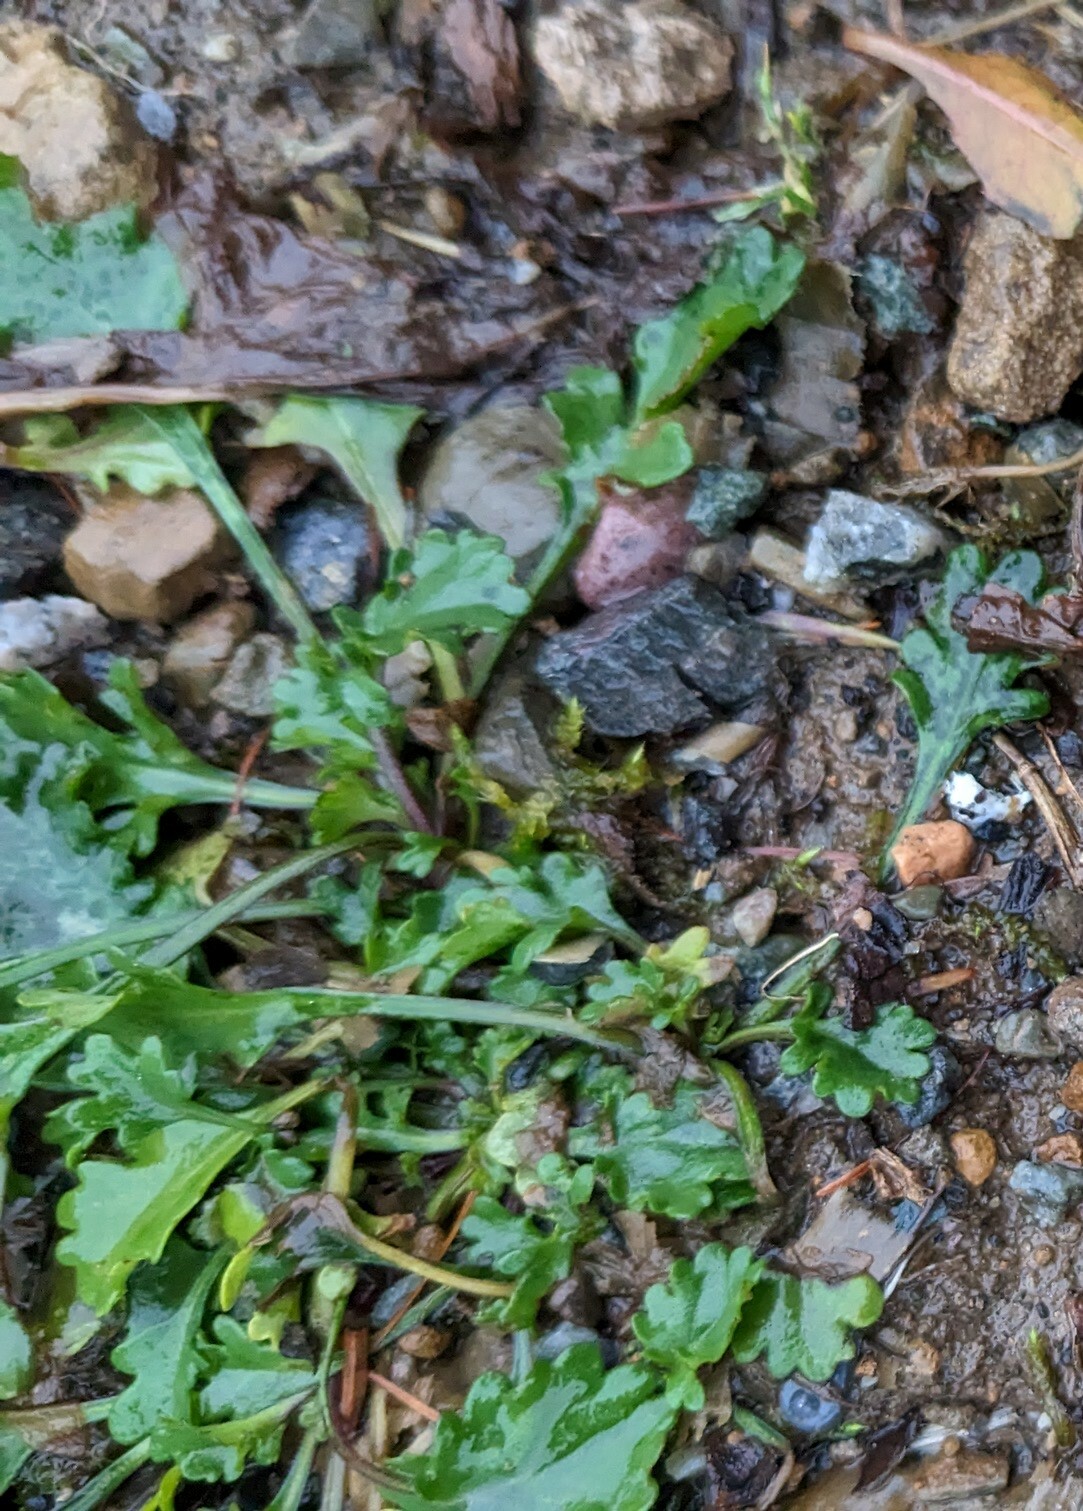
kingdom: Plantae
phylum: Tracheophyta
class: Magnoliopsida
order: Asterales
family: Asteraceae
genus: Leucanthemum
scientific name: Leucanthemum vulgare
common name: Oxeye daisy
